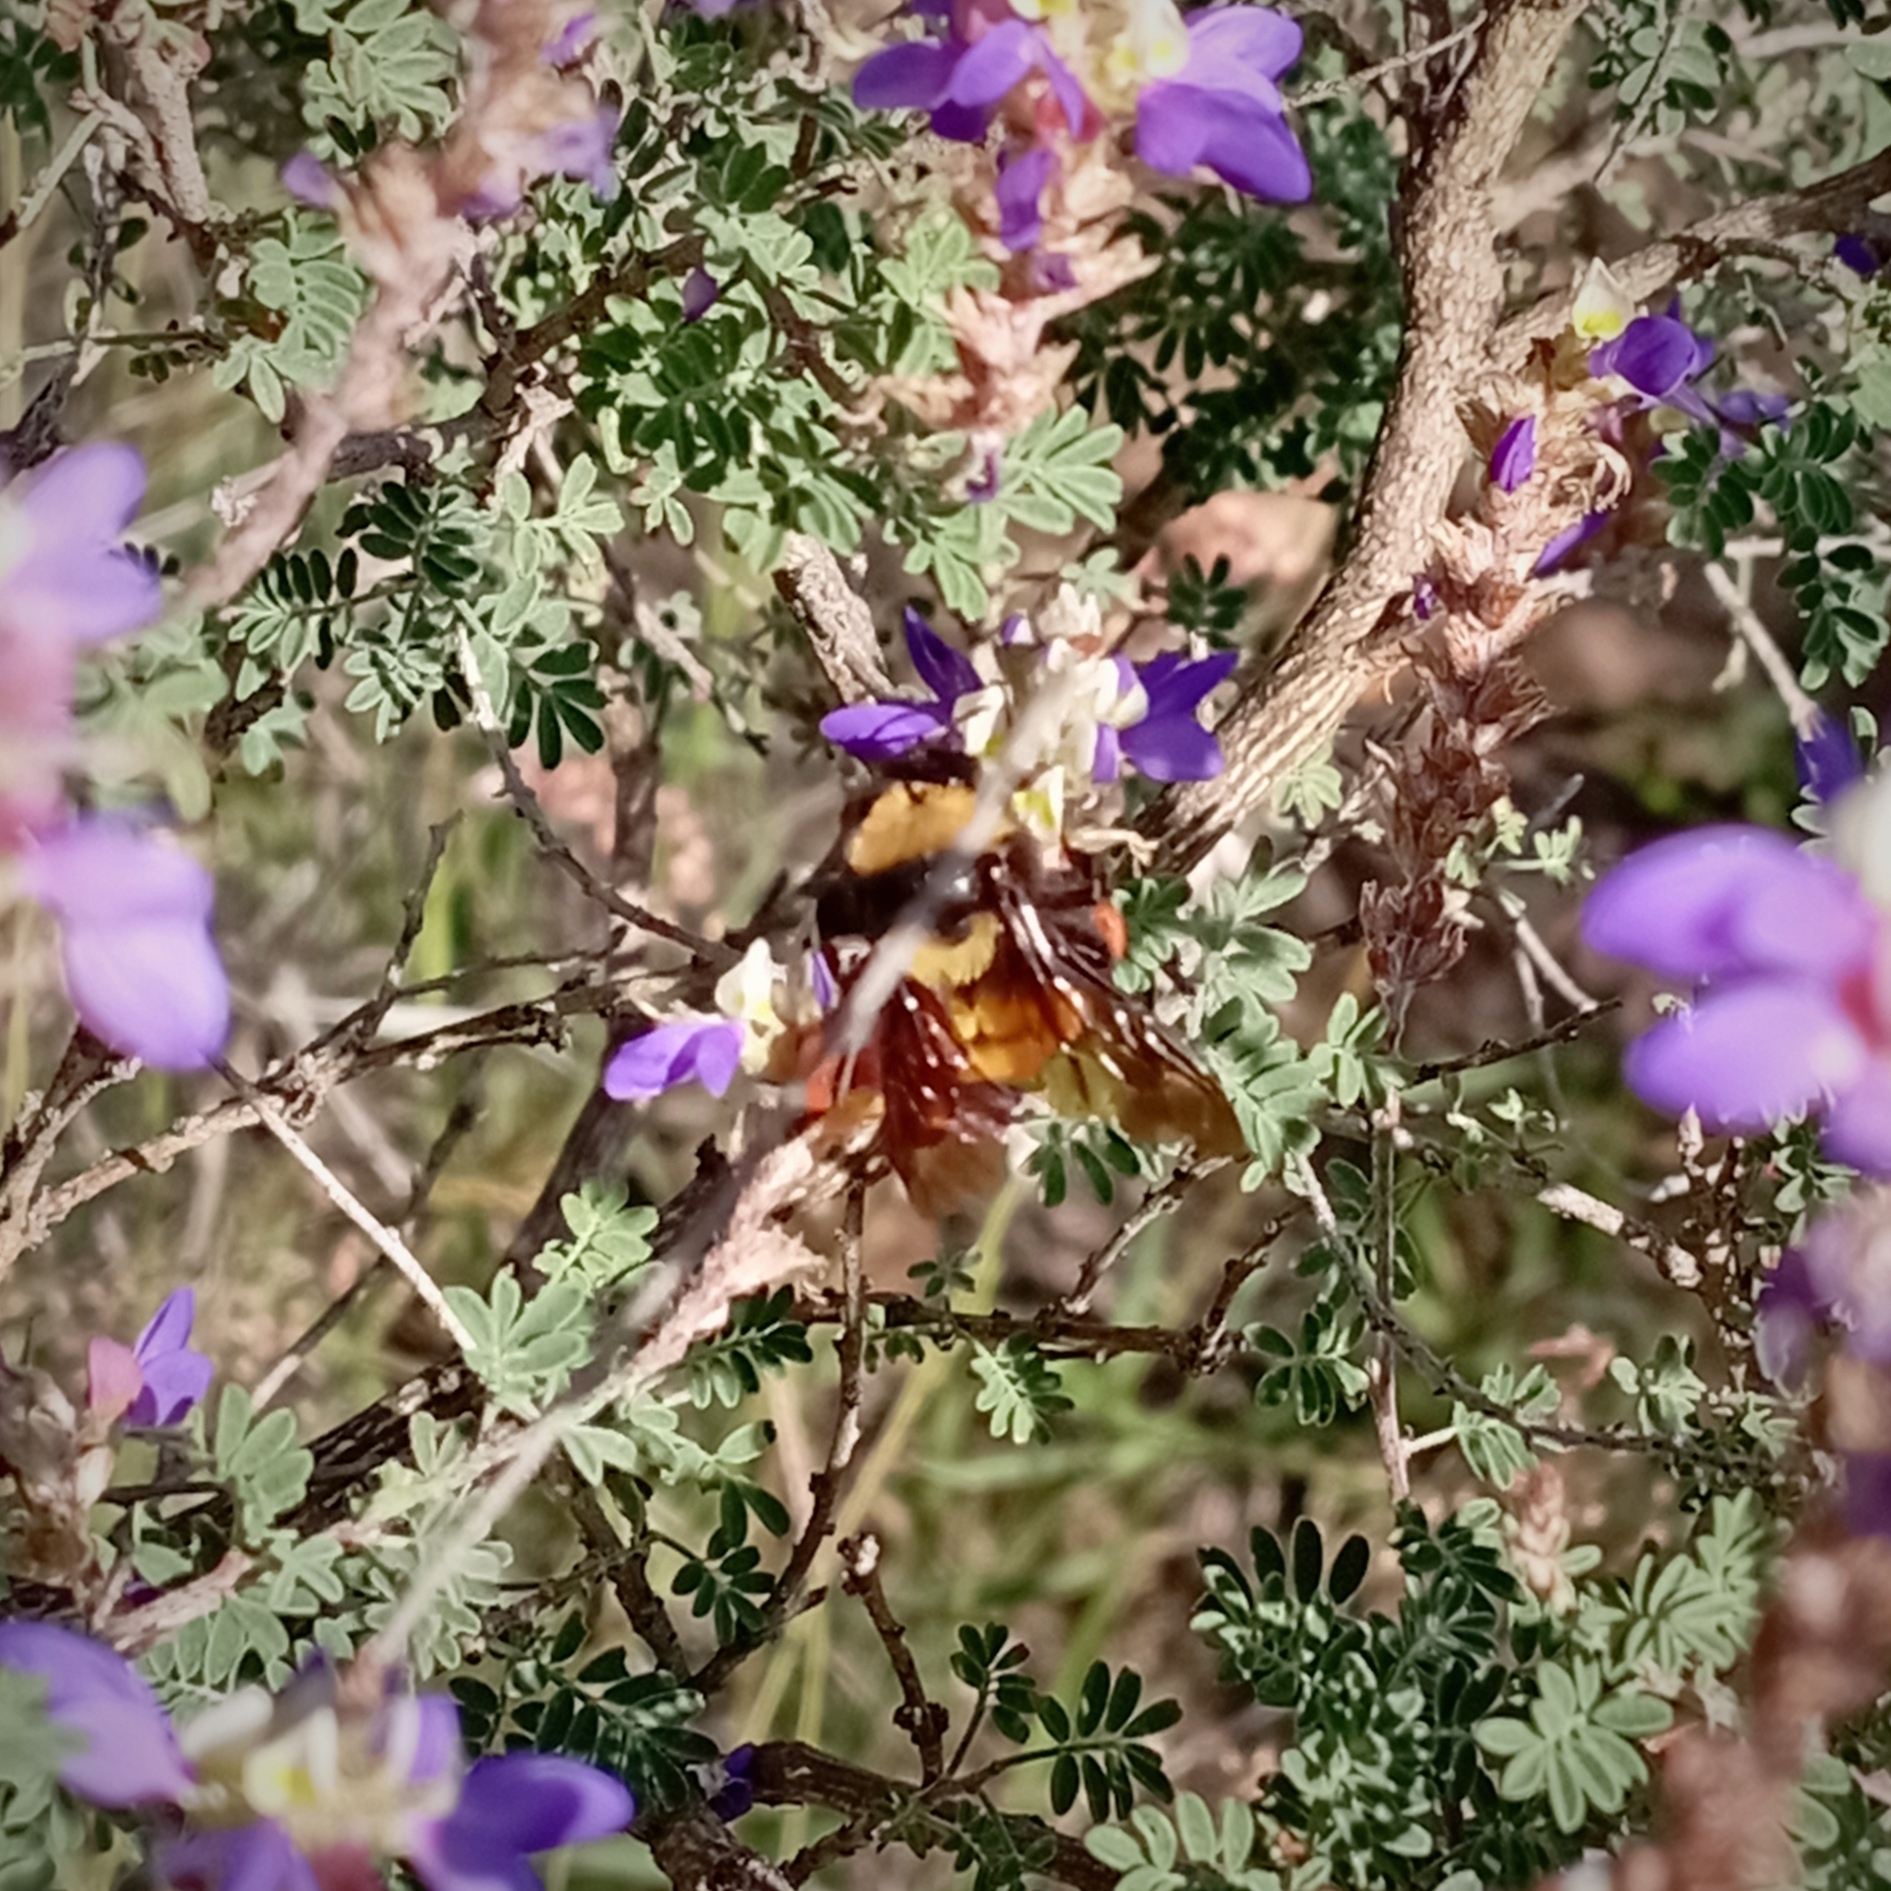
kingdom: Animalia
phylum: Arthropoda
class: Insecta
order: Hymenoptera
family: Apidae
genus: Bombus
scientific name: Bombus sonorus
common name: Sonoran bumble bee
